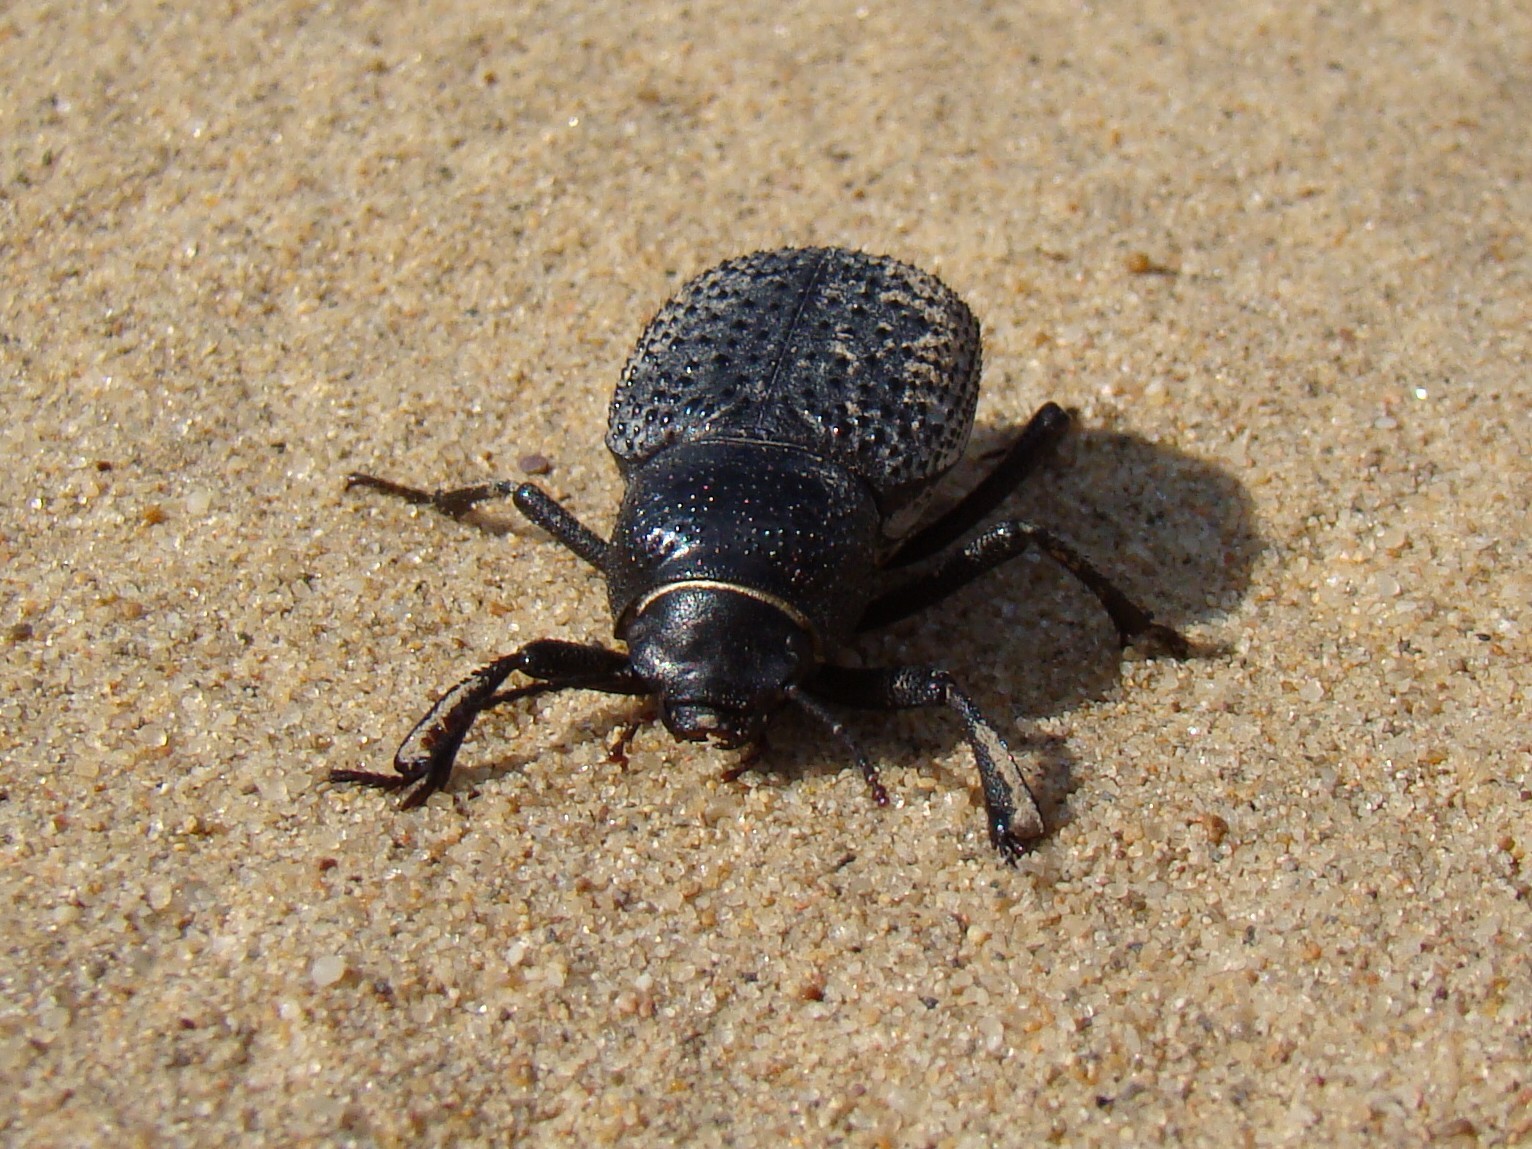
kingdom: Animalia
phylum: Arthropoda
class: Insecta
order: Coleoptera
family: Tenebrionidae
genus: Trigonoscelis
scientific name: Trigonoscelis
